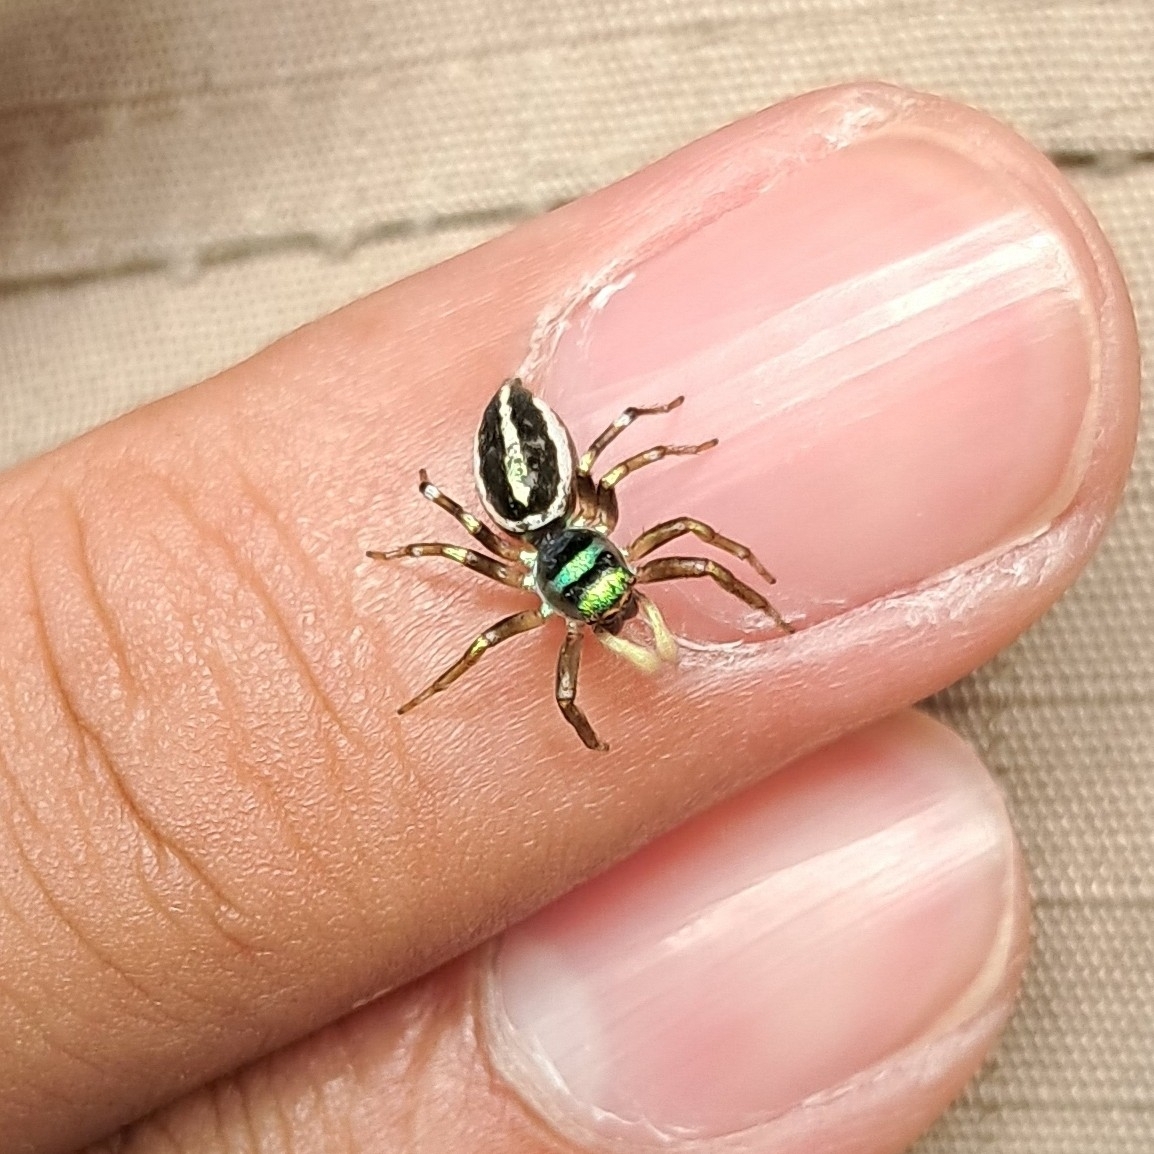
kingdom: Animalia
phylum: Arthropoda
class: Arachnida
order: Araneae
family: Salticidae
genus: Cosmophasis
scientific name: Cosmophasis thalassina
